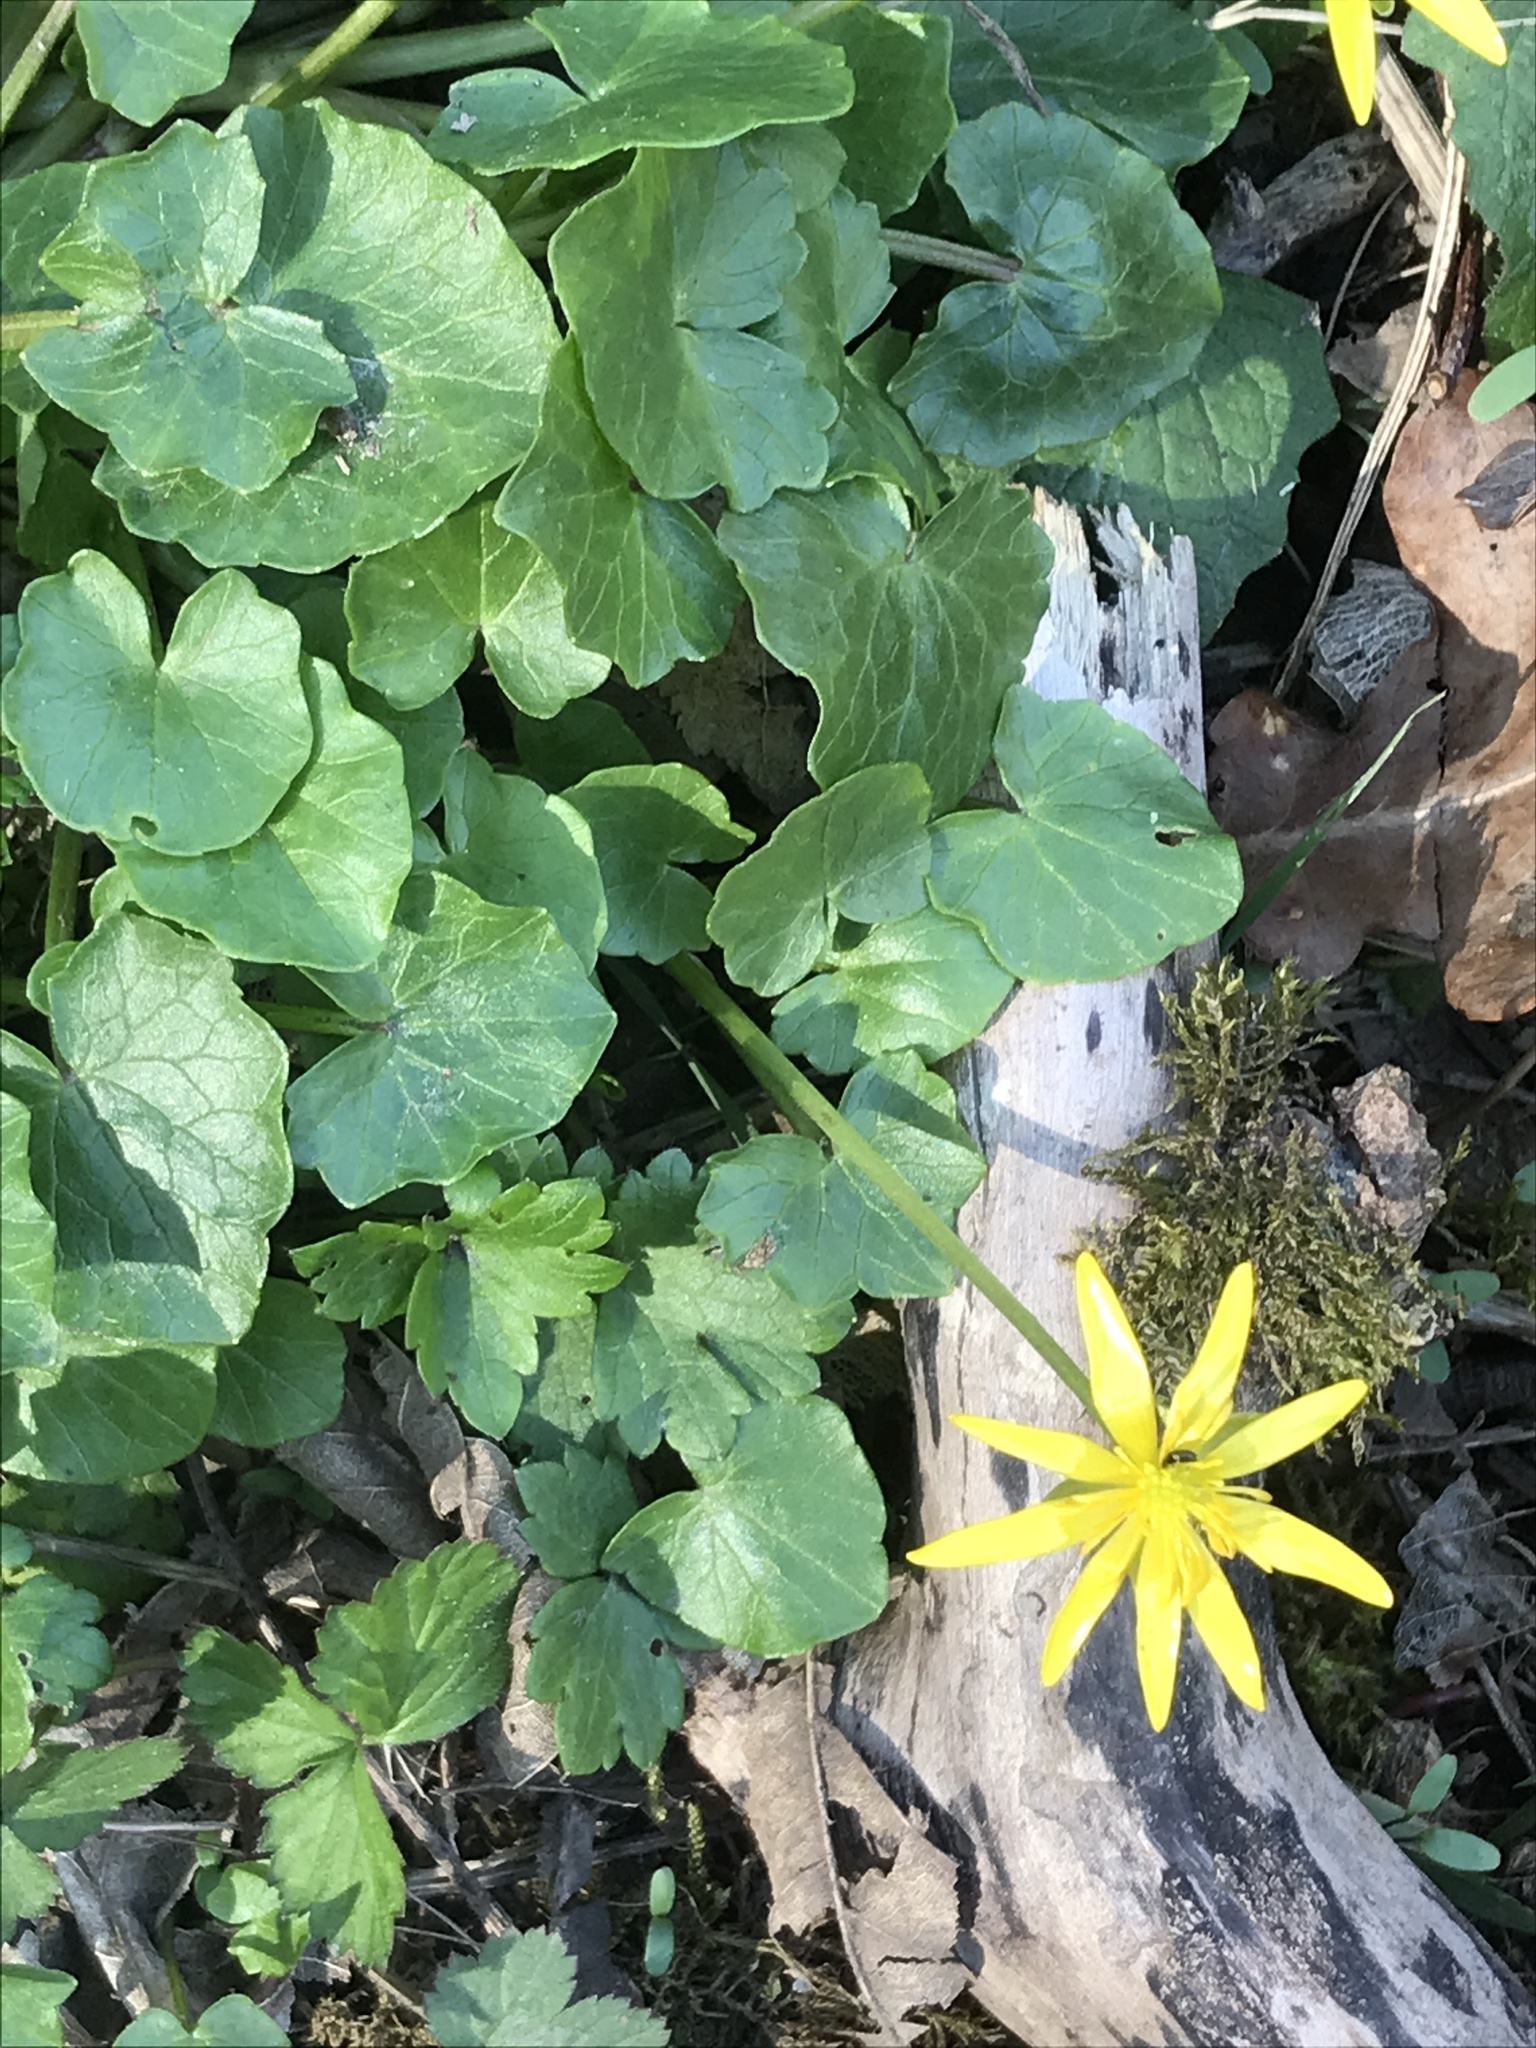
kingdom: Plantae
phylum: Tracheophyta
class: Magnoliopsida
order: Ranunculales
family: Ranunculaceae
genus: Ficaria
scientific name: Ficaria verna
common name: Lesser celandine
